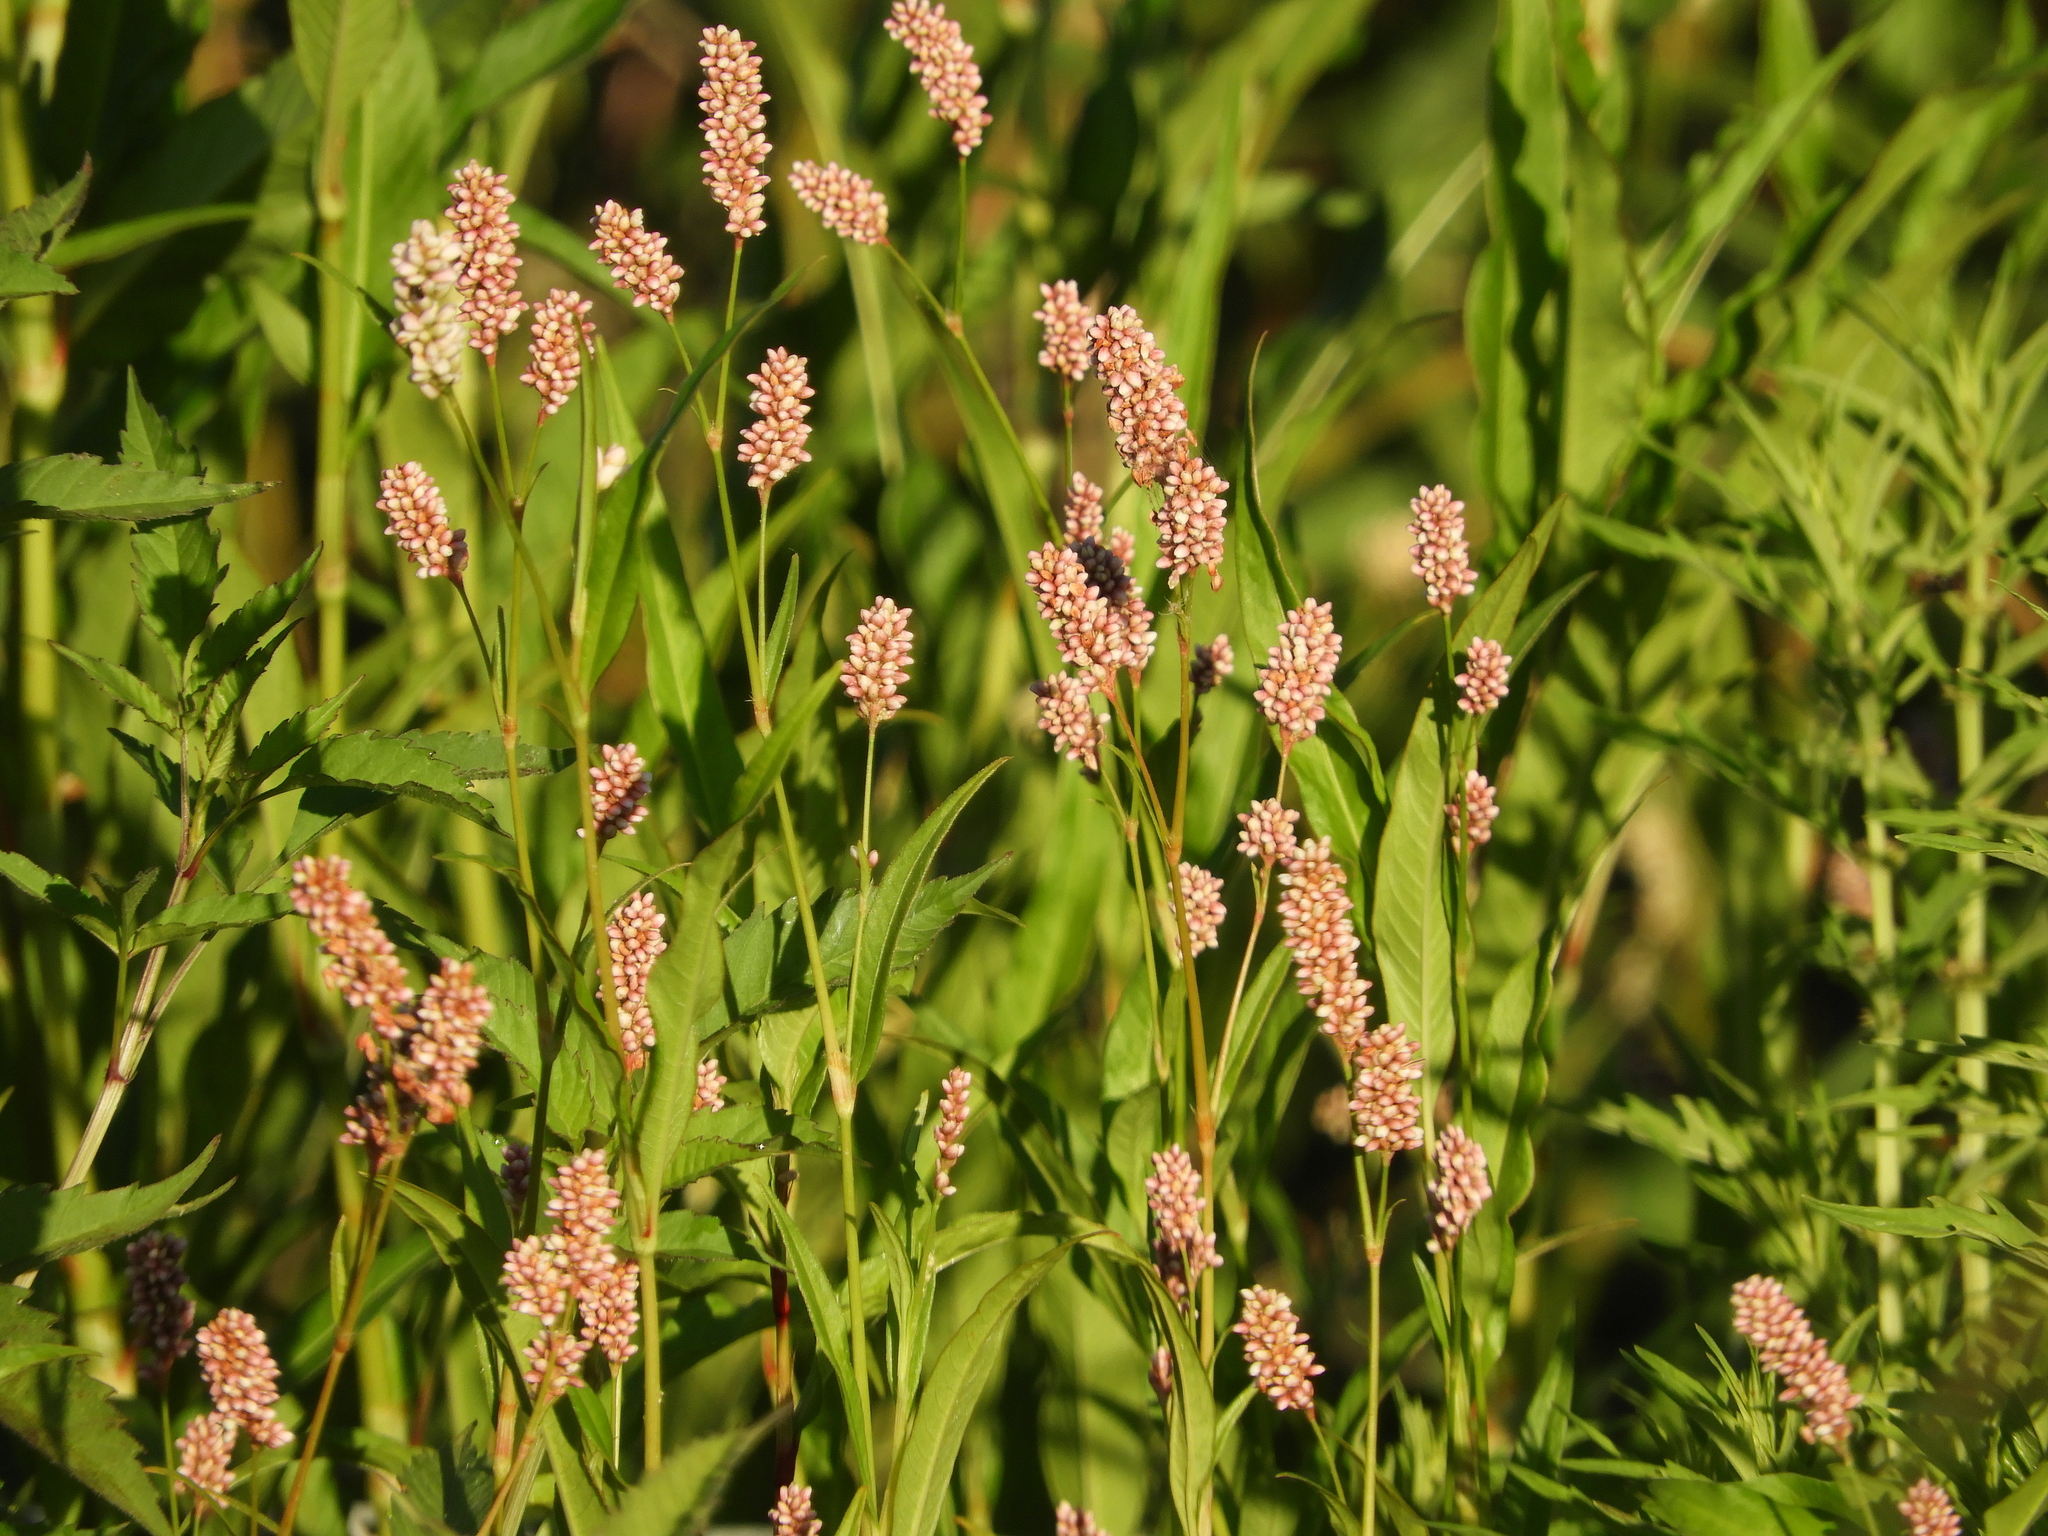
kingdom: Plantae
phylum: Tracheophyta
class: Magnoliopsida
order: Caryophyllales
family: Polygonaceae
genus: Persicaria
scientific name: Persicaria maculosa
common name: Redshank
